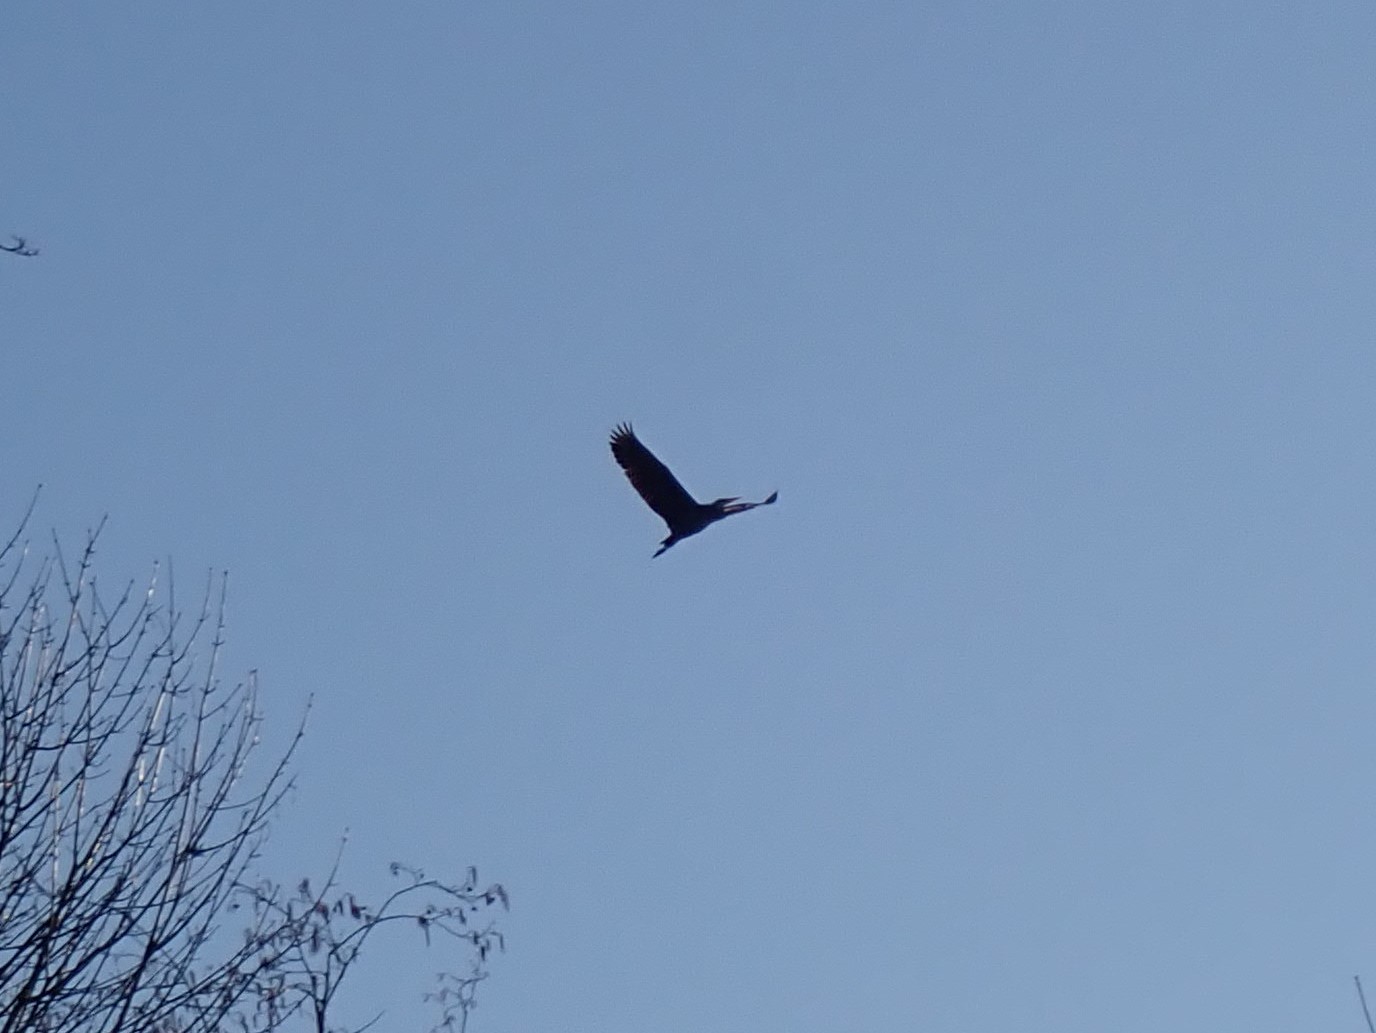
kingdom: Animalia
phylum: Chordata
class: Aves
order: Pelecaniformes
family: Ardeidae
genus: Ardea
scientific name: Ardea herodias
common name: Great blue heron
